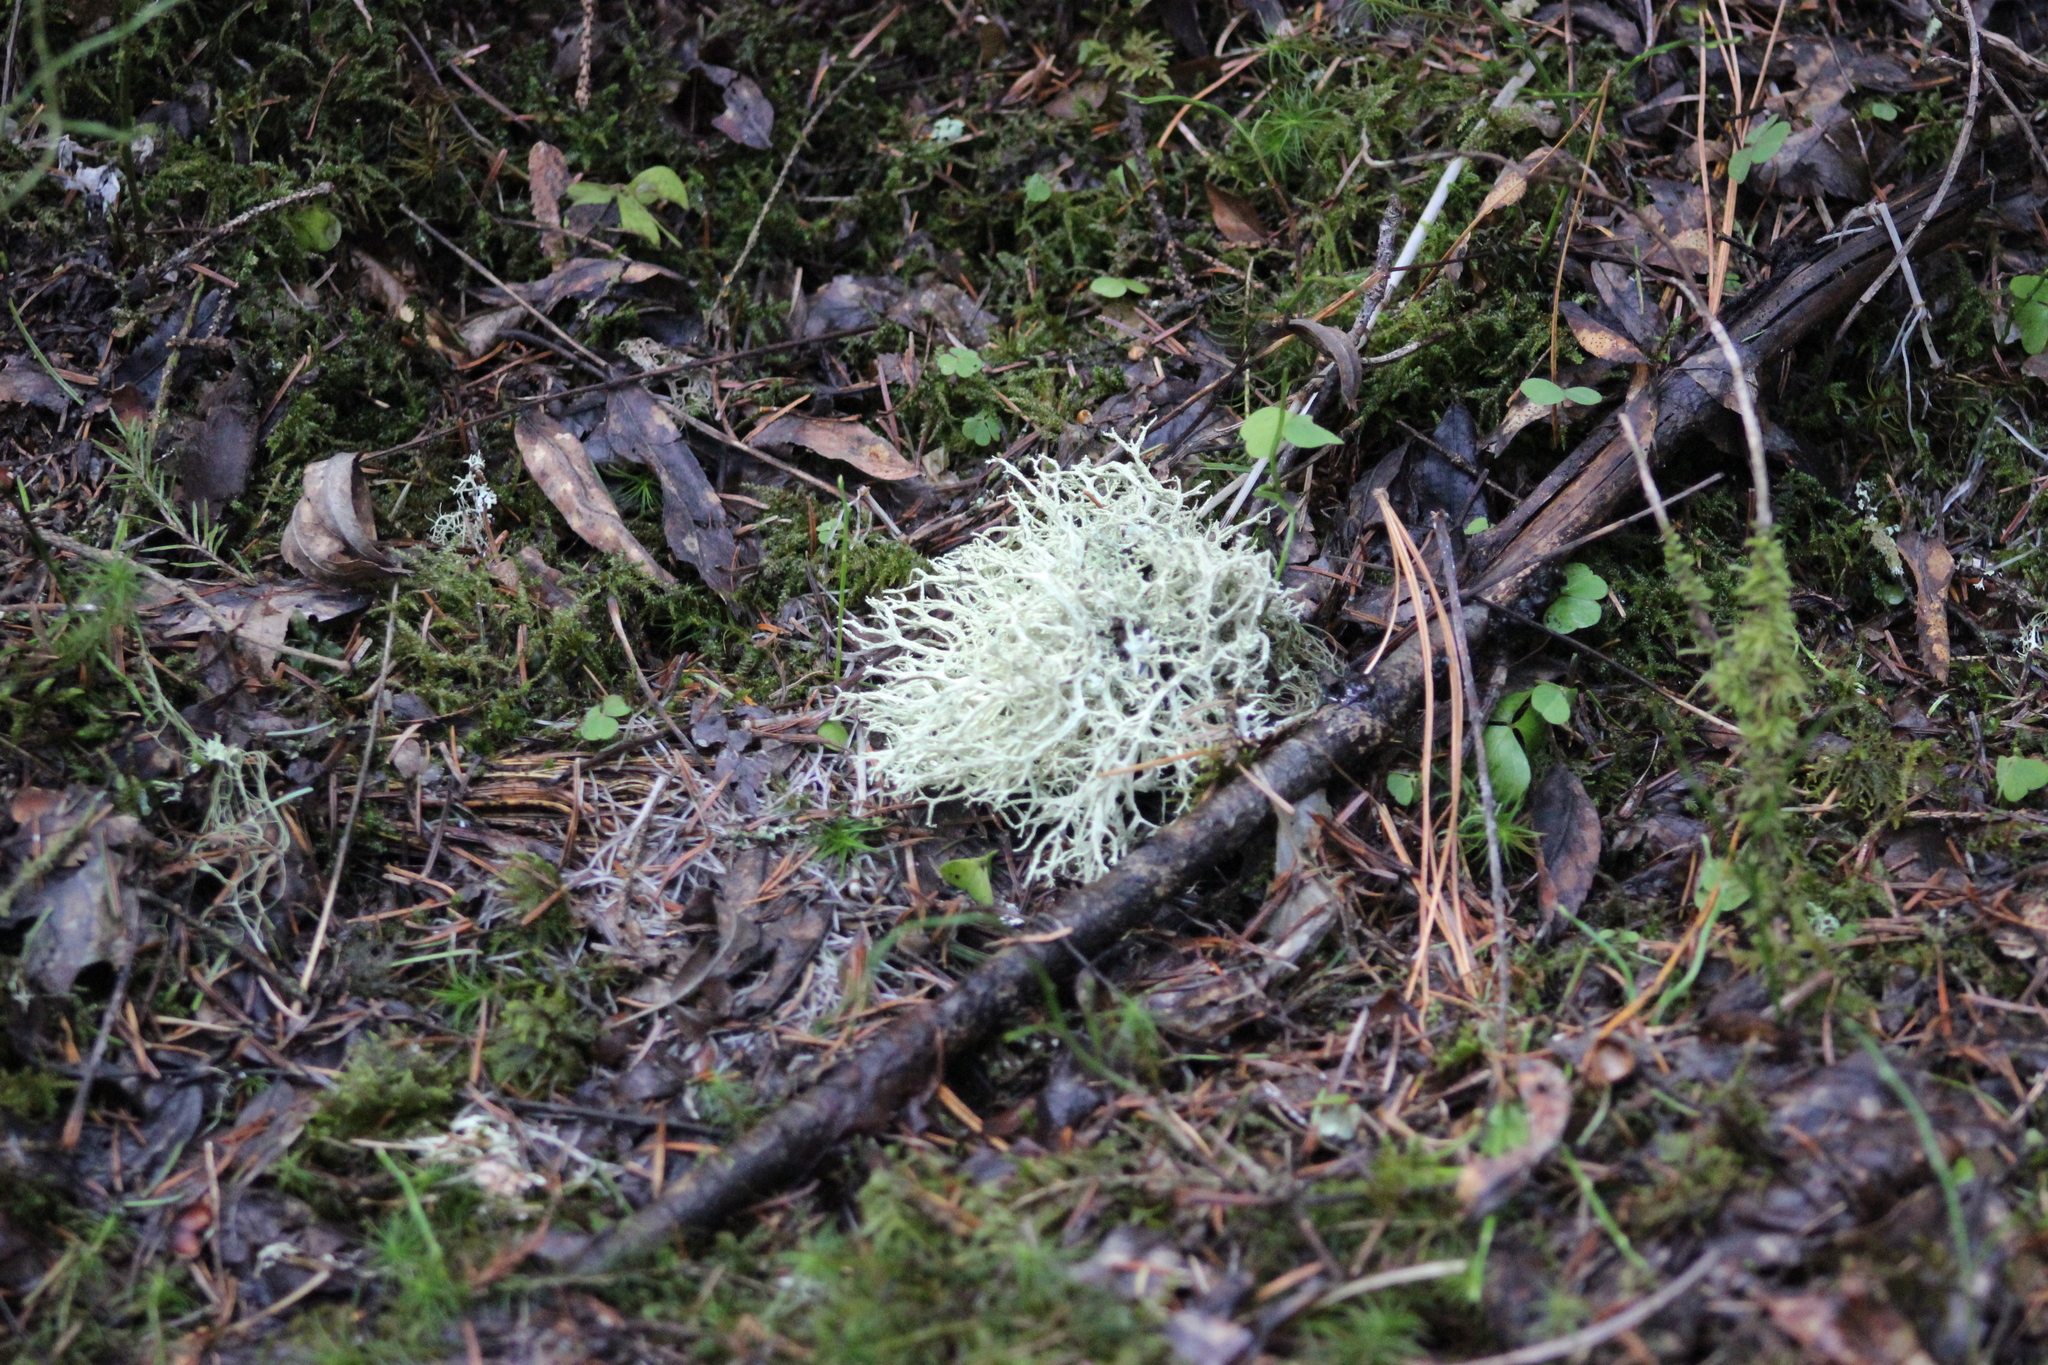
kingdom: Fungi
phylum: Ascomycota
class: Lecanoromycetes
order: Lecanorales
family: Parmeliaceae
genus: Evernia
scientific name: Evernia mesomorpha
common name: Boreal oak moss lichen
